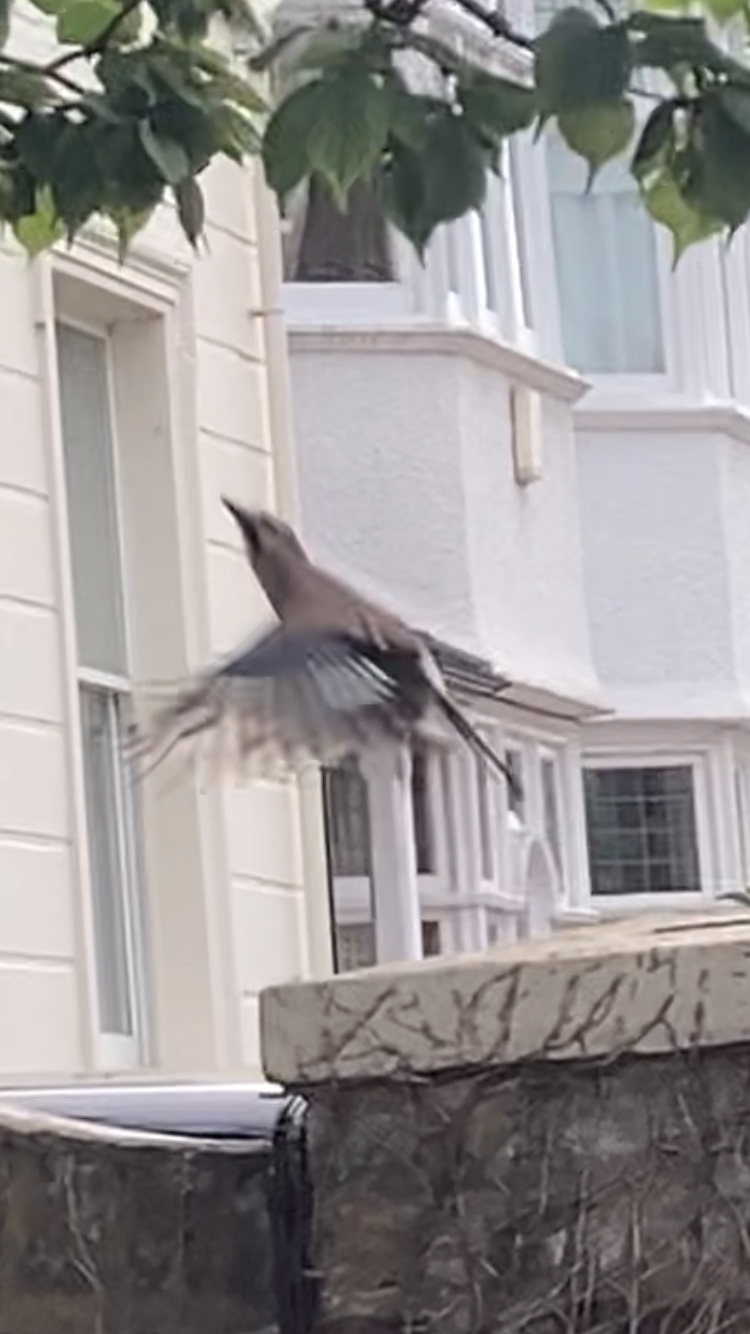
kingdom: Animalia
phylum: Chordata
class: Aves
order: Passeriformes
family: Corvidae
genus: Garrulus
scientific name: Garrulus glandarius
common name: Eurasian jay
